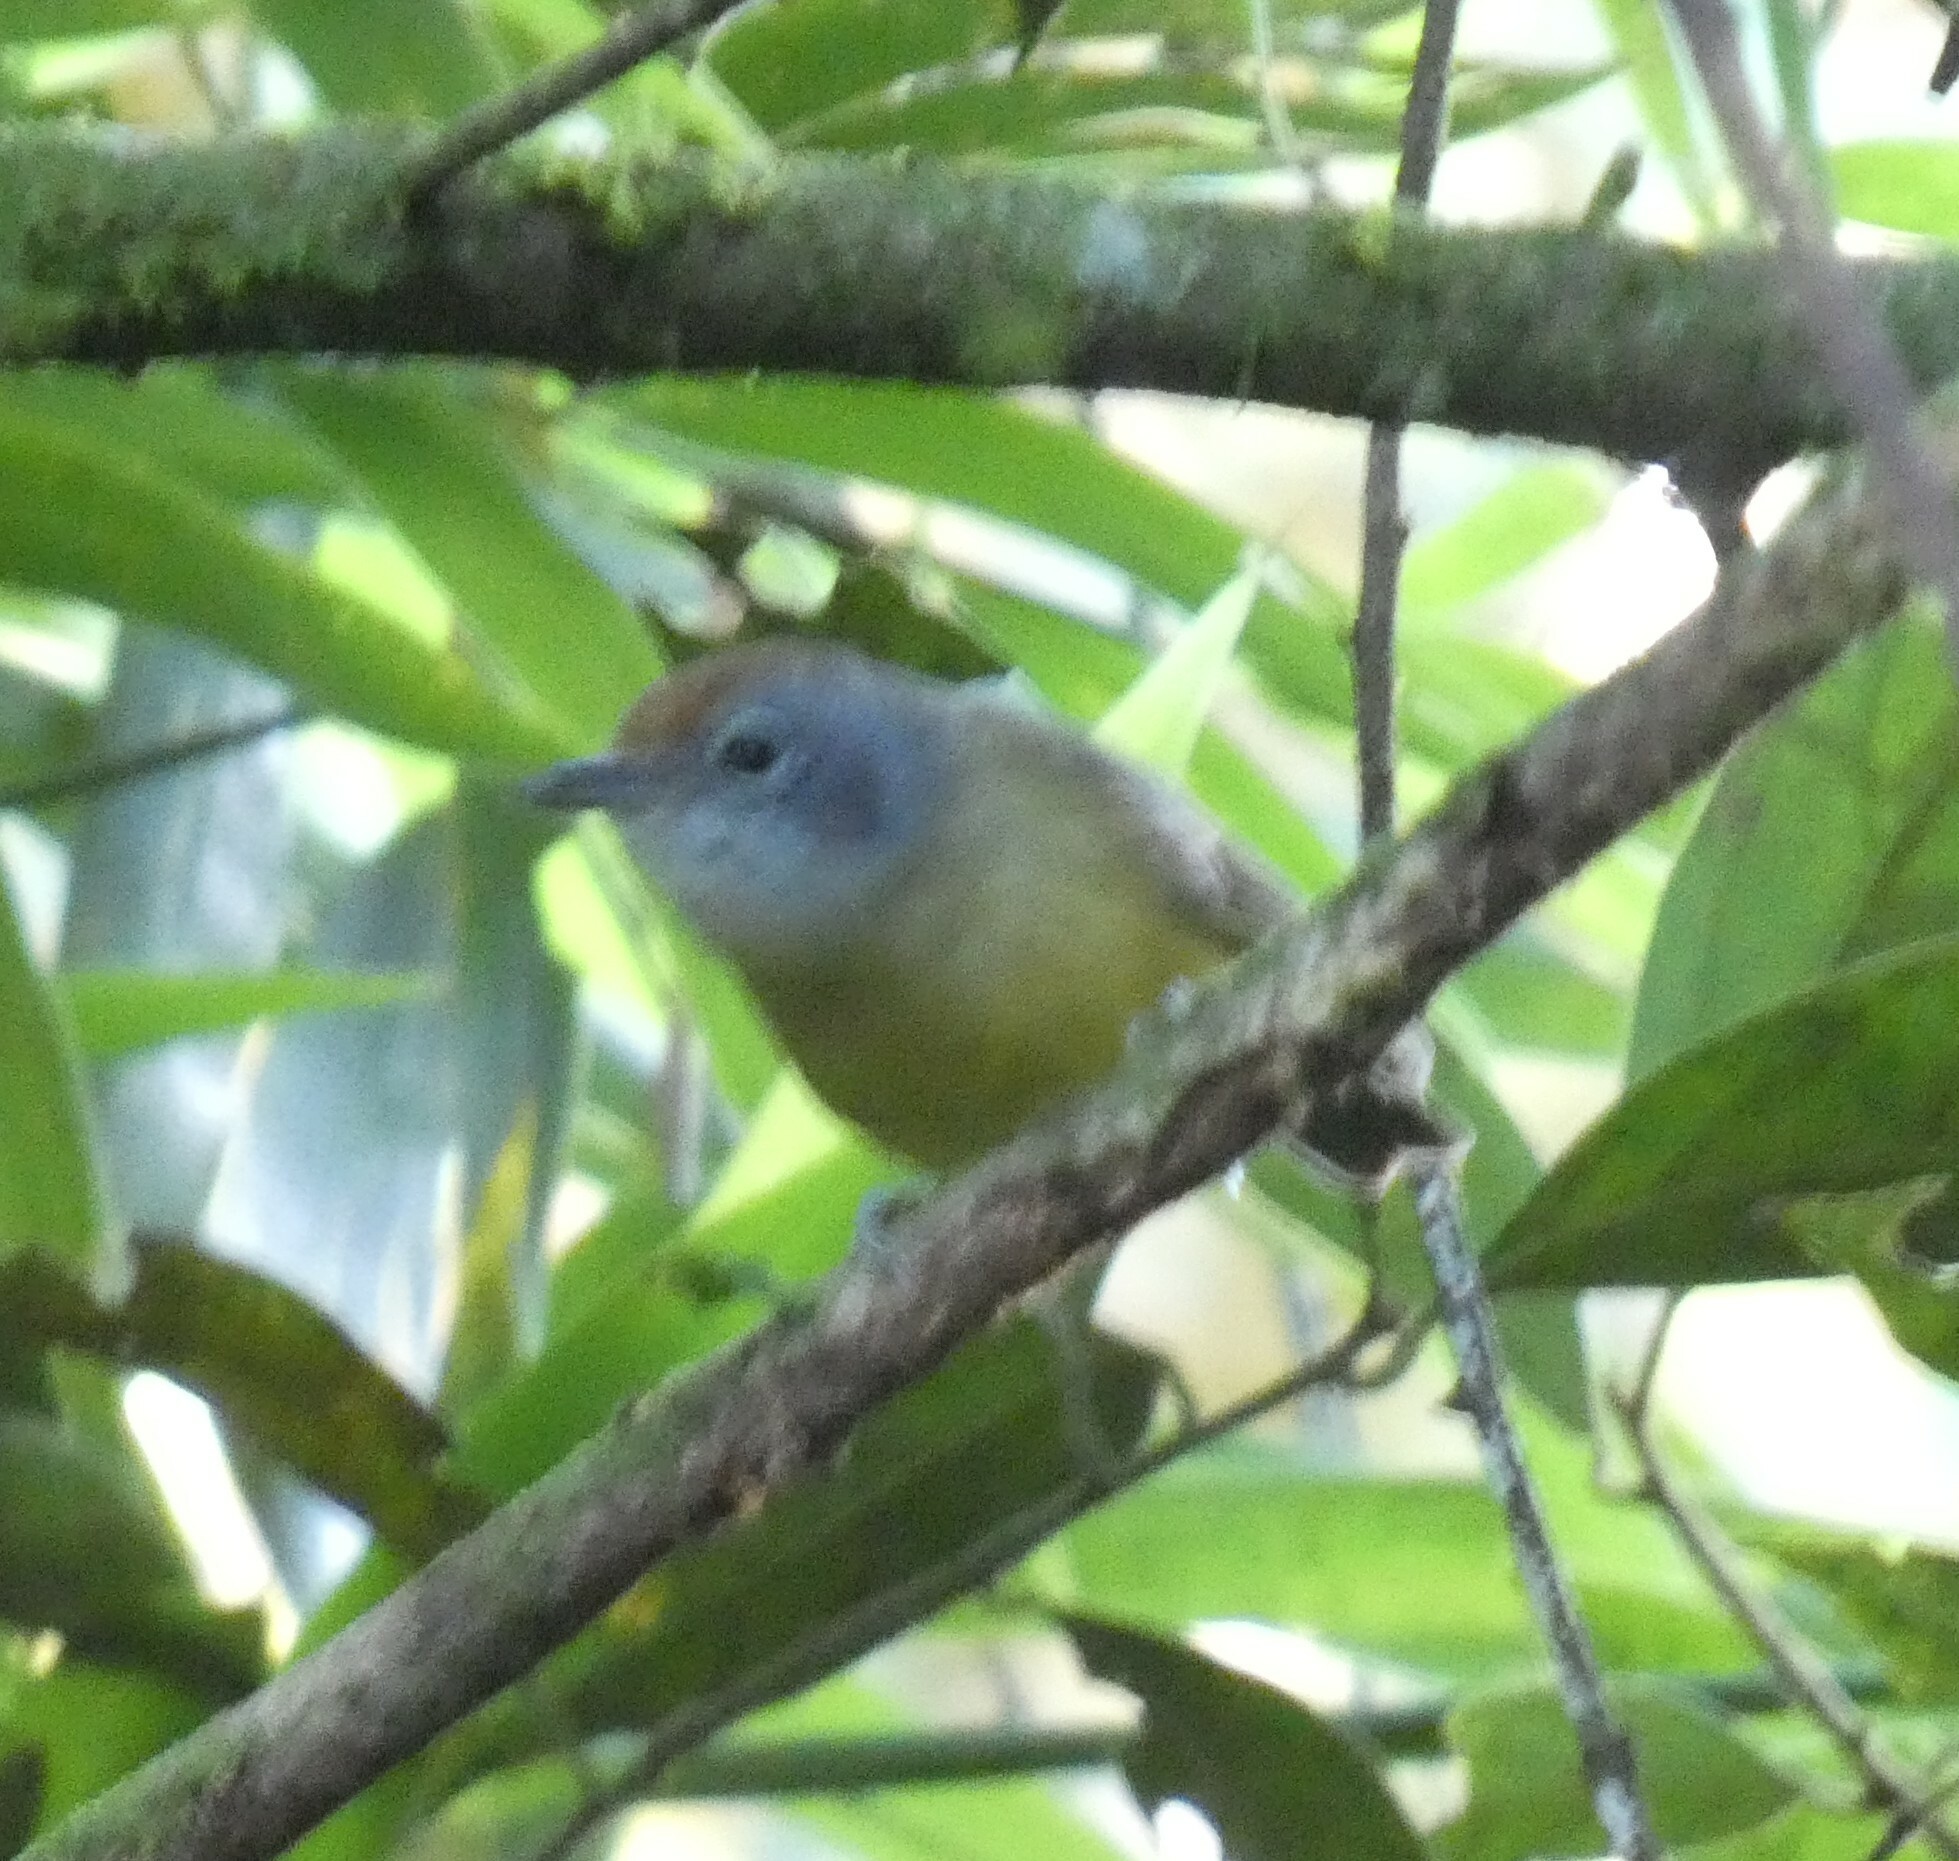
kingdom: Animalia
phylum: Chordata
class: Aves
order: Passeriformes
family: Thamnophilidae
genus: Dysithamnus
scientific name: Dysithamnus mentalis
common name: Plain antvireo
